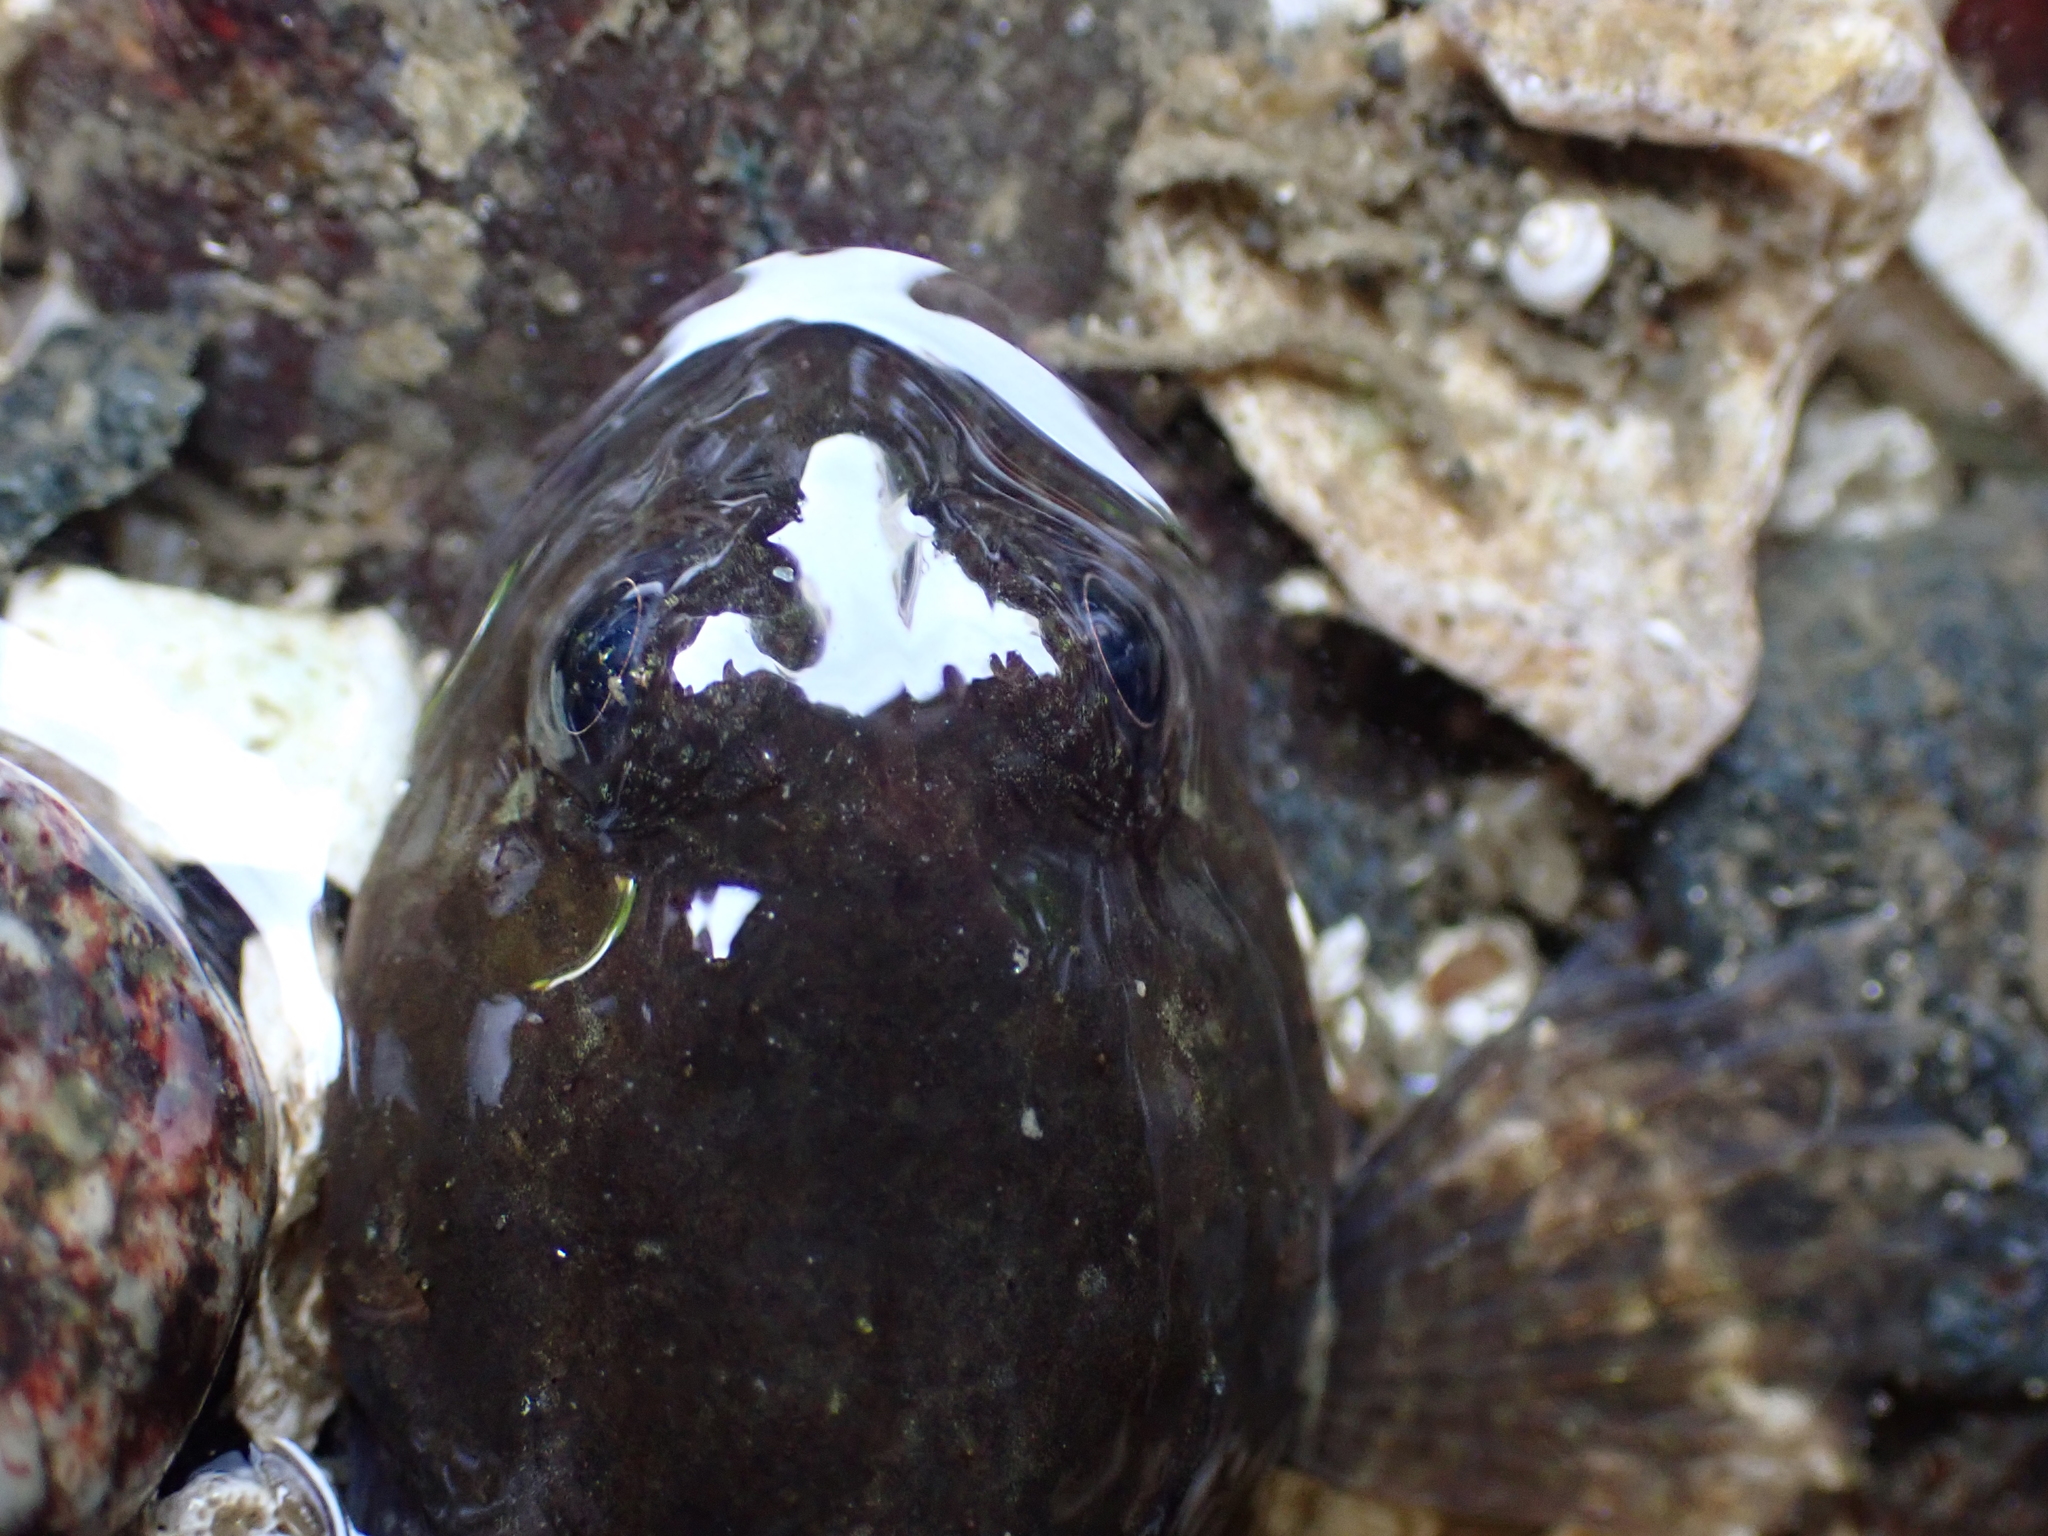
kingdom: Animalia
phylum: Chordata
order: Scorpaeniformes
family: Cottidae
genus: Ascelichthys
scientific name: Ascelichthys rhodorus
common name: Rosylip sculpin
